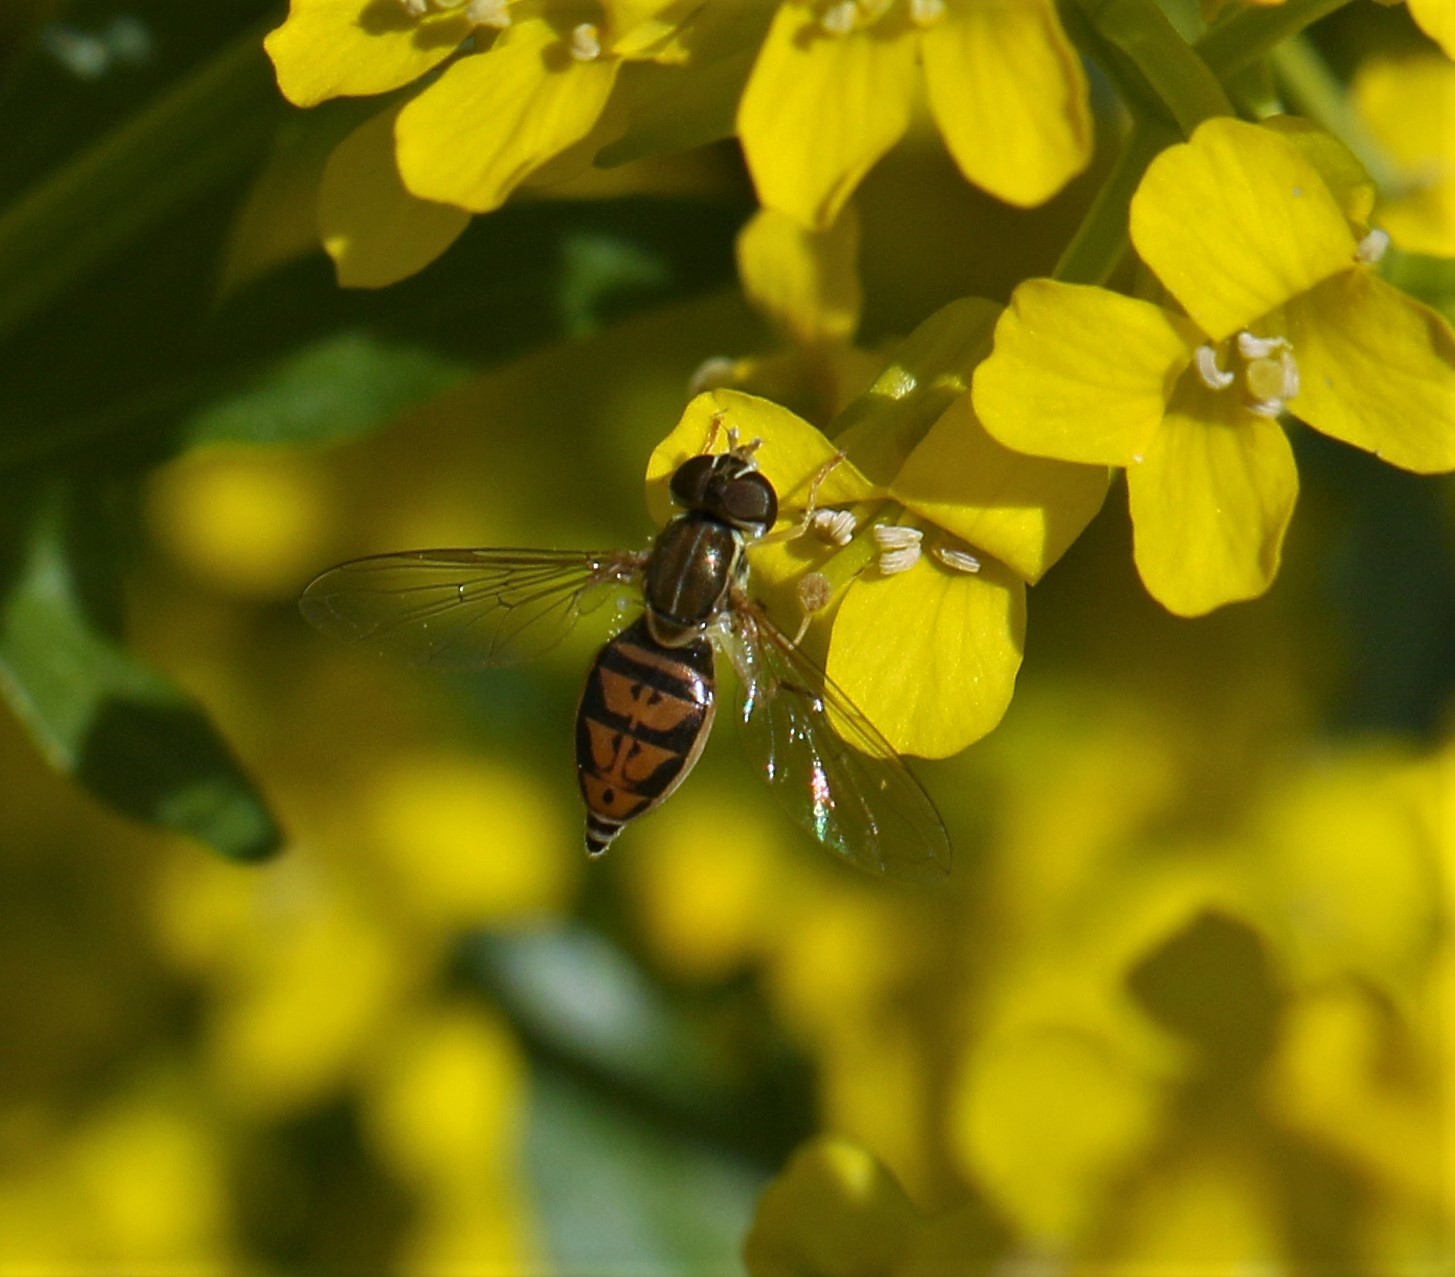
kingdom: Animalia
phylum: Arthropoda
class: Insecta
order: Diptera
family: Syrphidae
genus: Toxomerus
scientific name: Toxomerus marginatus
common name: Syrphid fly
